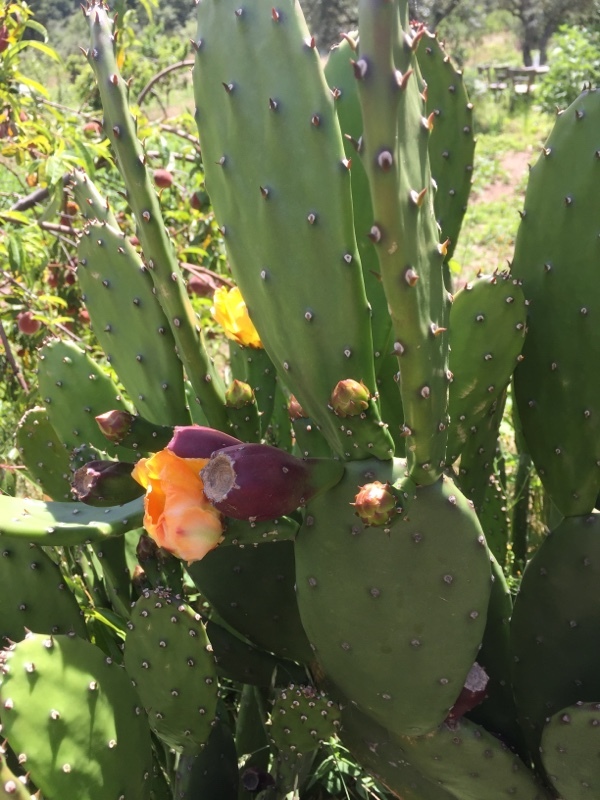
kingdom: Plantae
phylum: Tracheophyta
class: Magnoliopsida
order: Caryophyllales
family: Cactaceae
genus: Opuntia
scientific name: Opuntia elata
